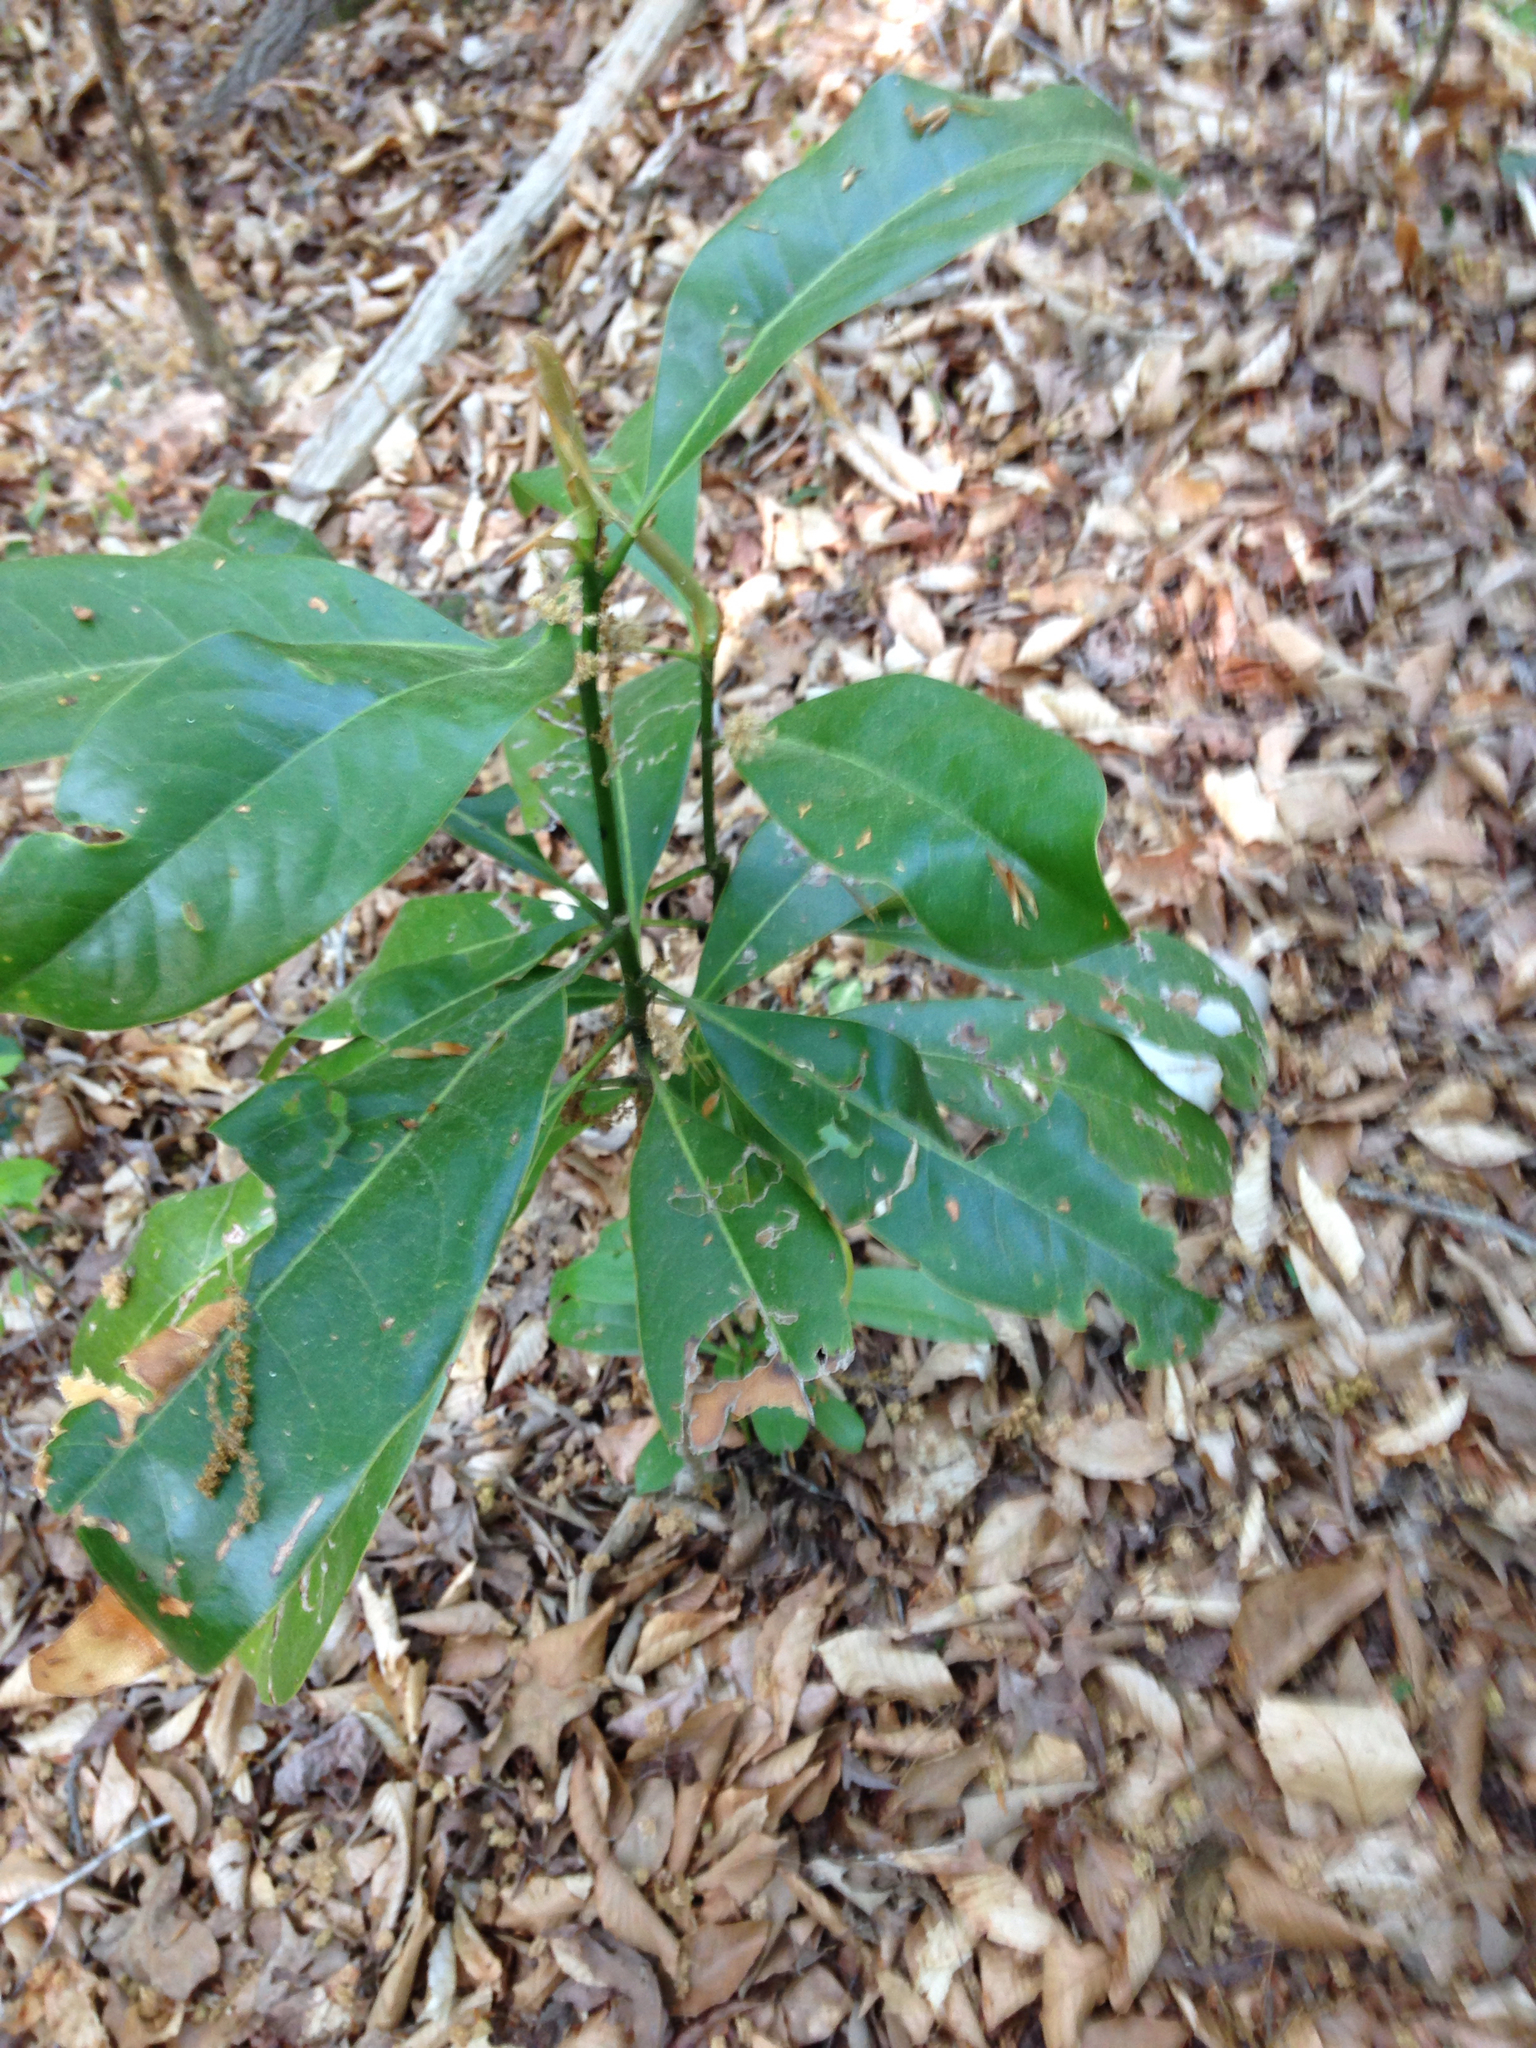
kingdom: Plantae
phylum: Tracheophyta
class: Magnoliopsida
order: Magnoliales
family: Magnoliaceae
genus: Magnolia
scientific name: Magnolia grandiflora
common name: Southern magnolia
